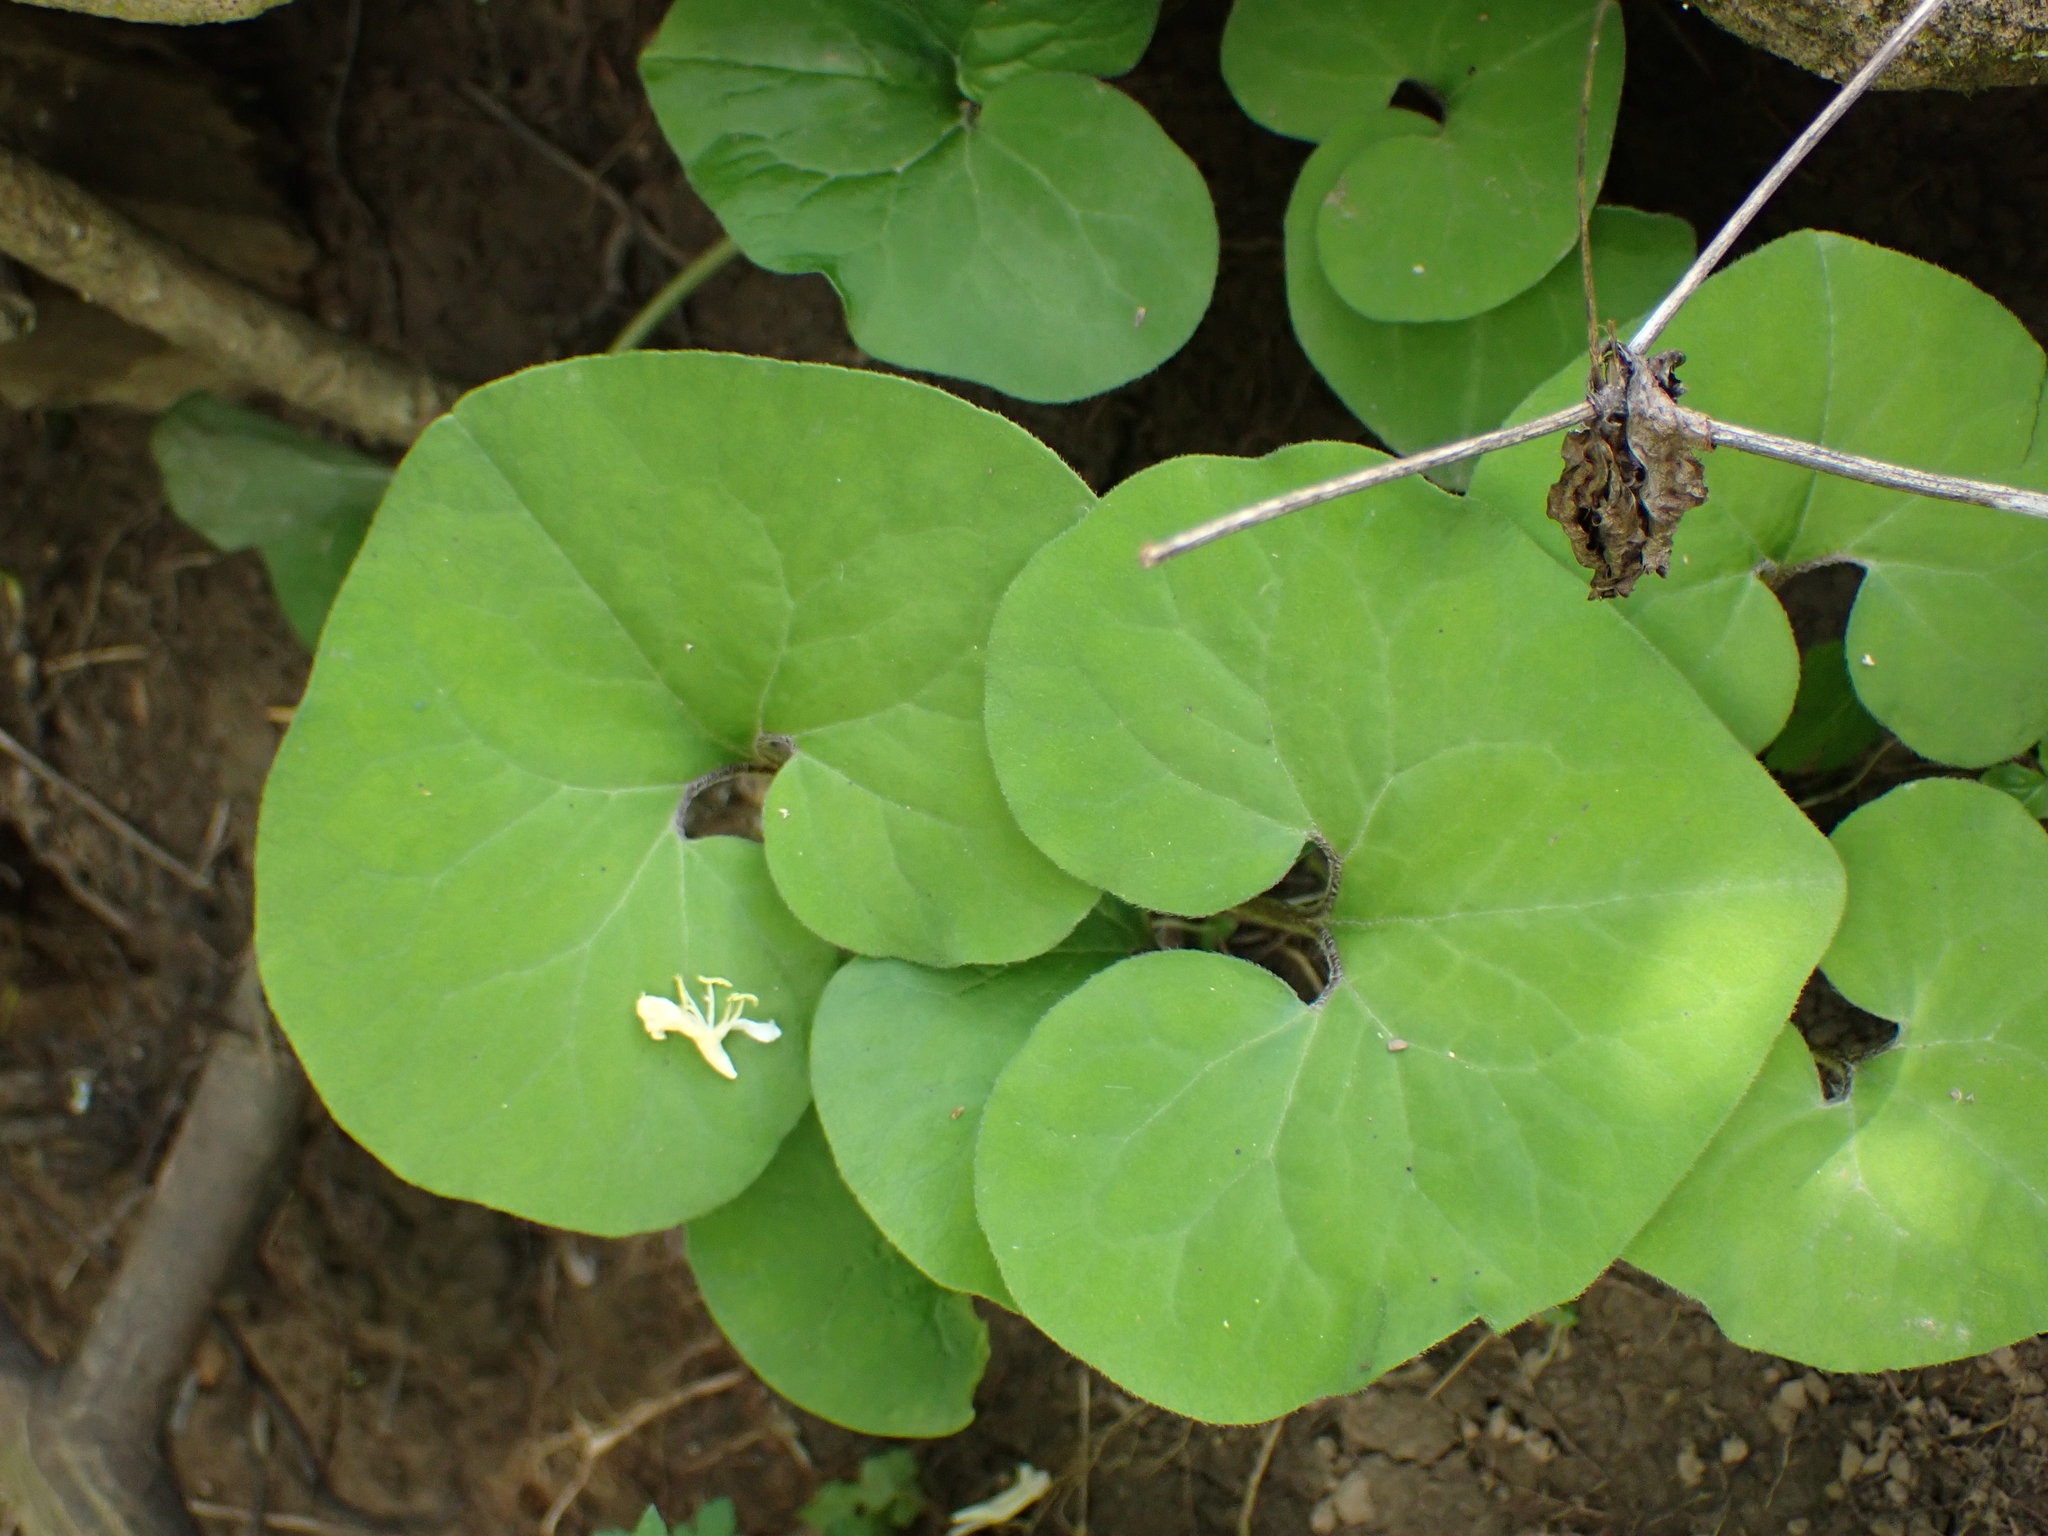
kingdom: Plantae
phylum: Tracheophyta
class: Magnoliopsida
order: Piperales
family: Aristolochiaceae
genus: Asarum
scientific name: Asarum canadense
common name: Wild ginger
